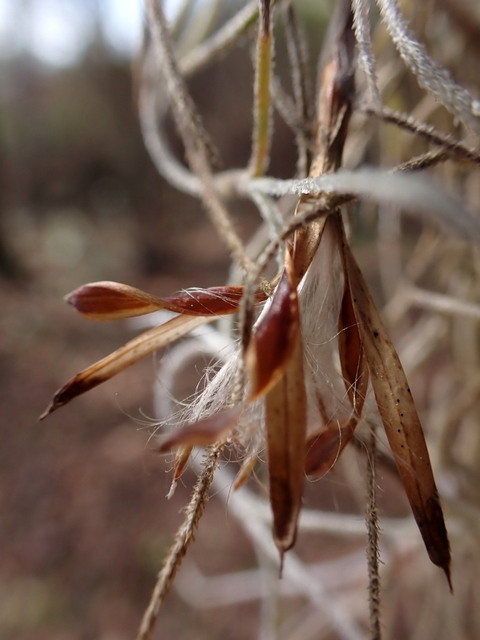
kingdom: Plantae
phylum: Tracheophyta
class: Liliopsida
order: Poales
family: Bromeliaceae
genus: Tillandsia
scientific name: Tillandsia usneoides
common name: Spanish moss
